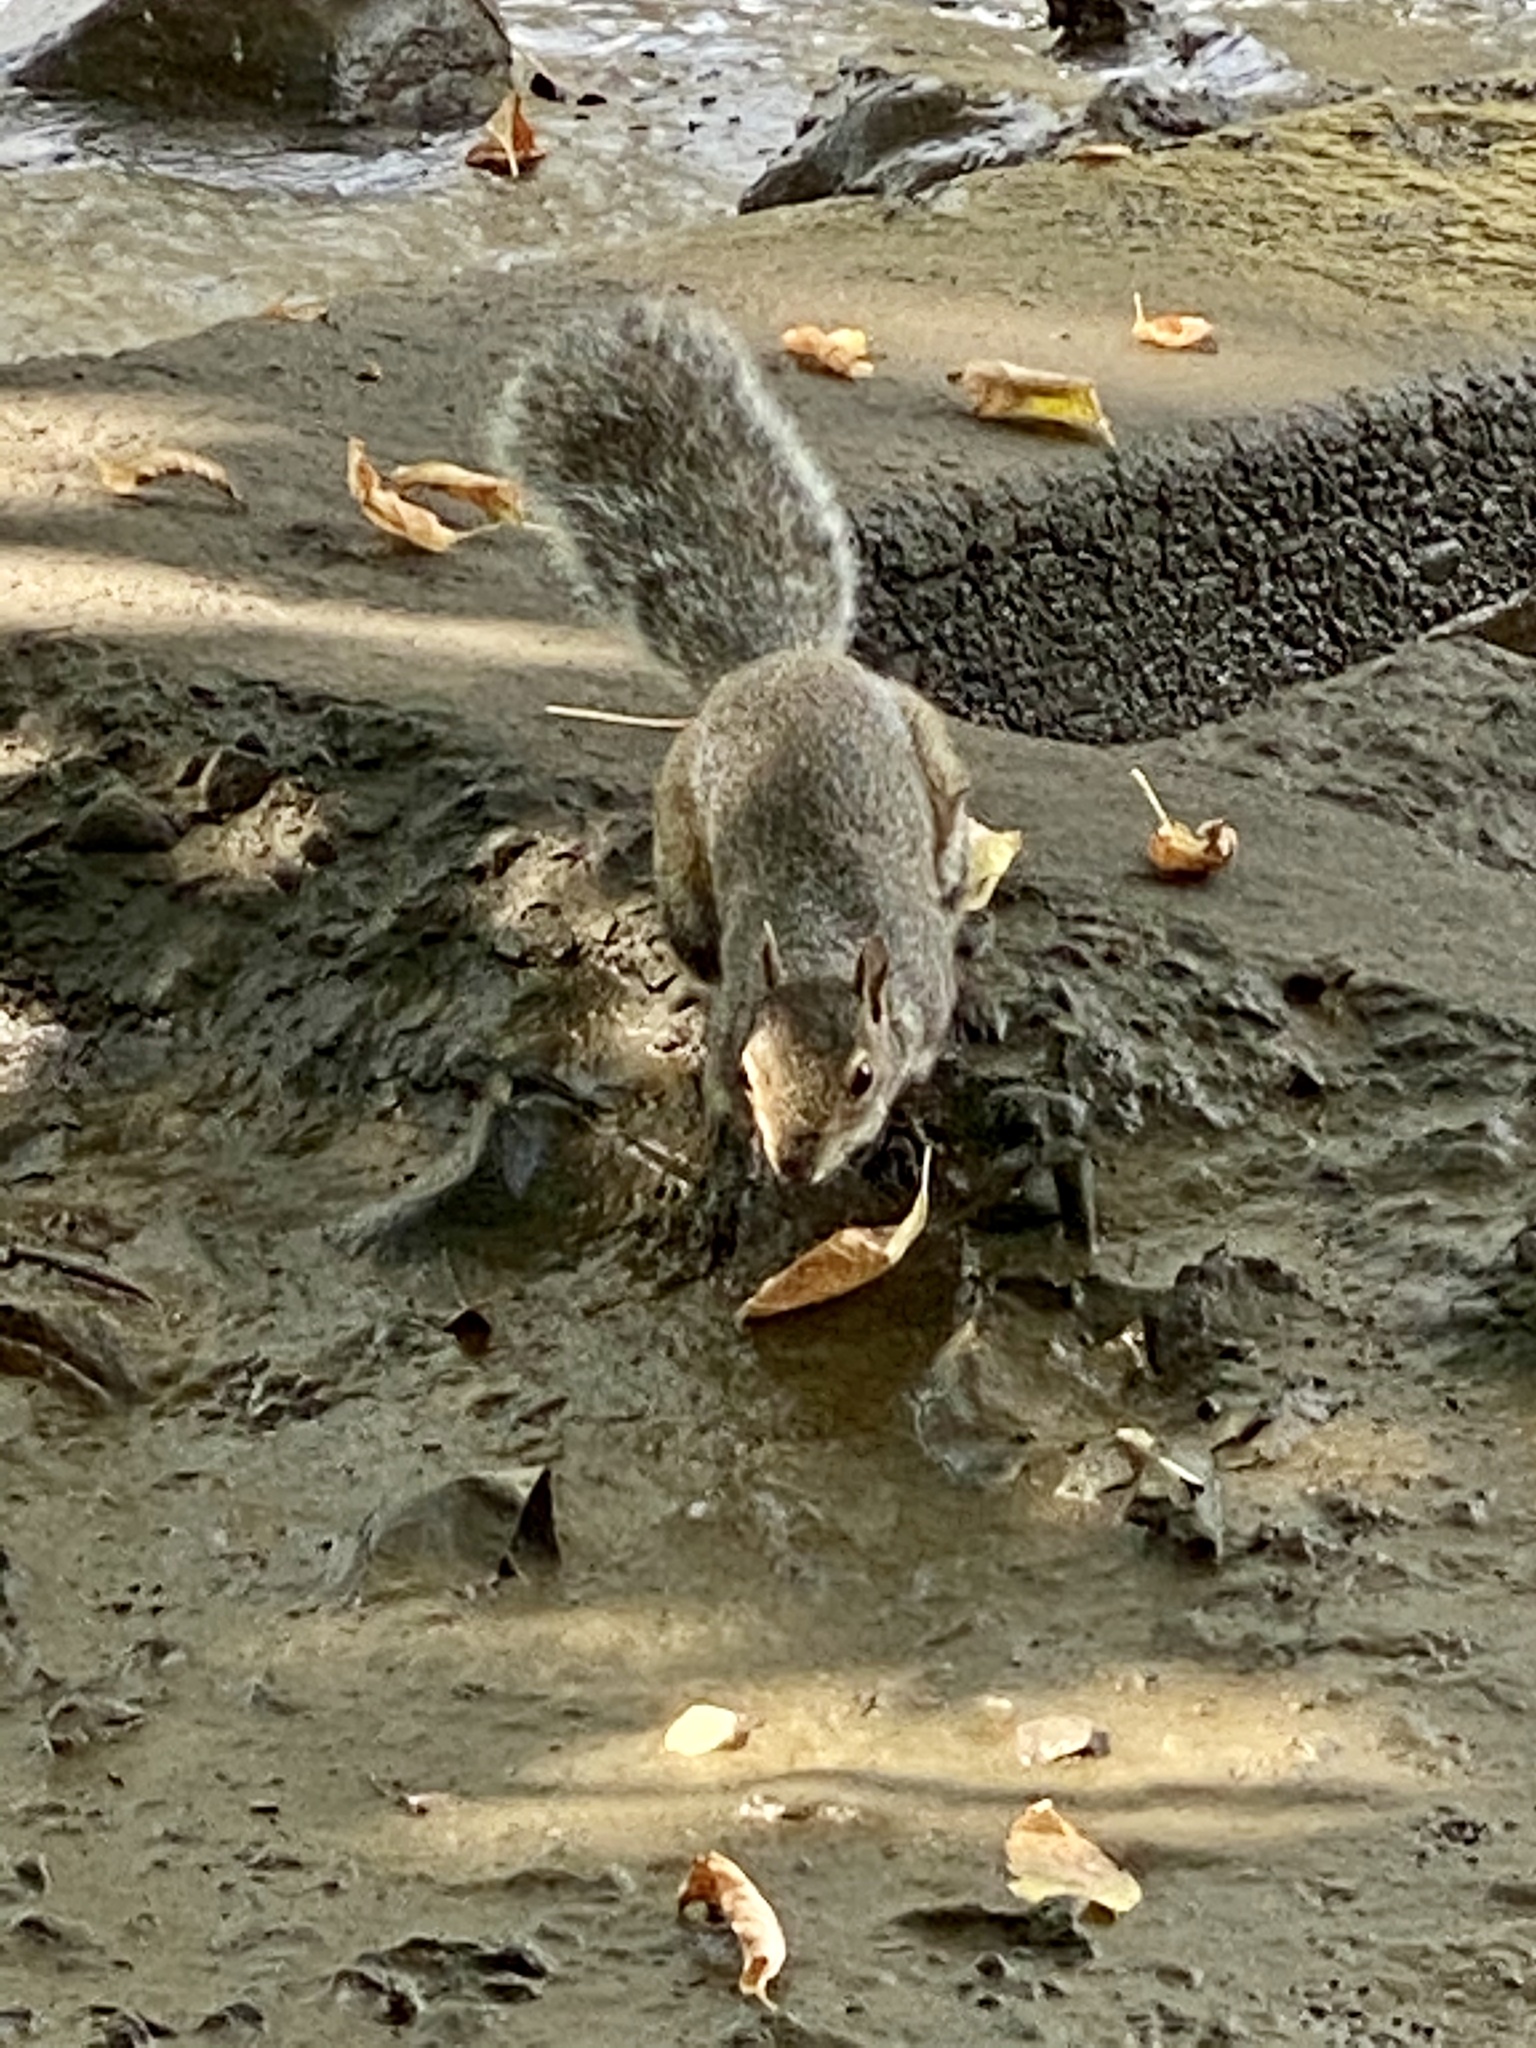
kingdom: Animalia
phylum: Chordata
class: Mammalia
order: Rodentia
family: Sciuridae
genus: Sciurus
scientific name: Sciurus carolinensis
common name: Eastern gray squirrel
